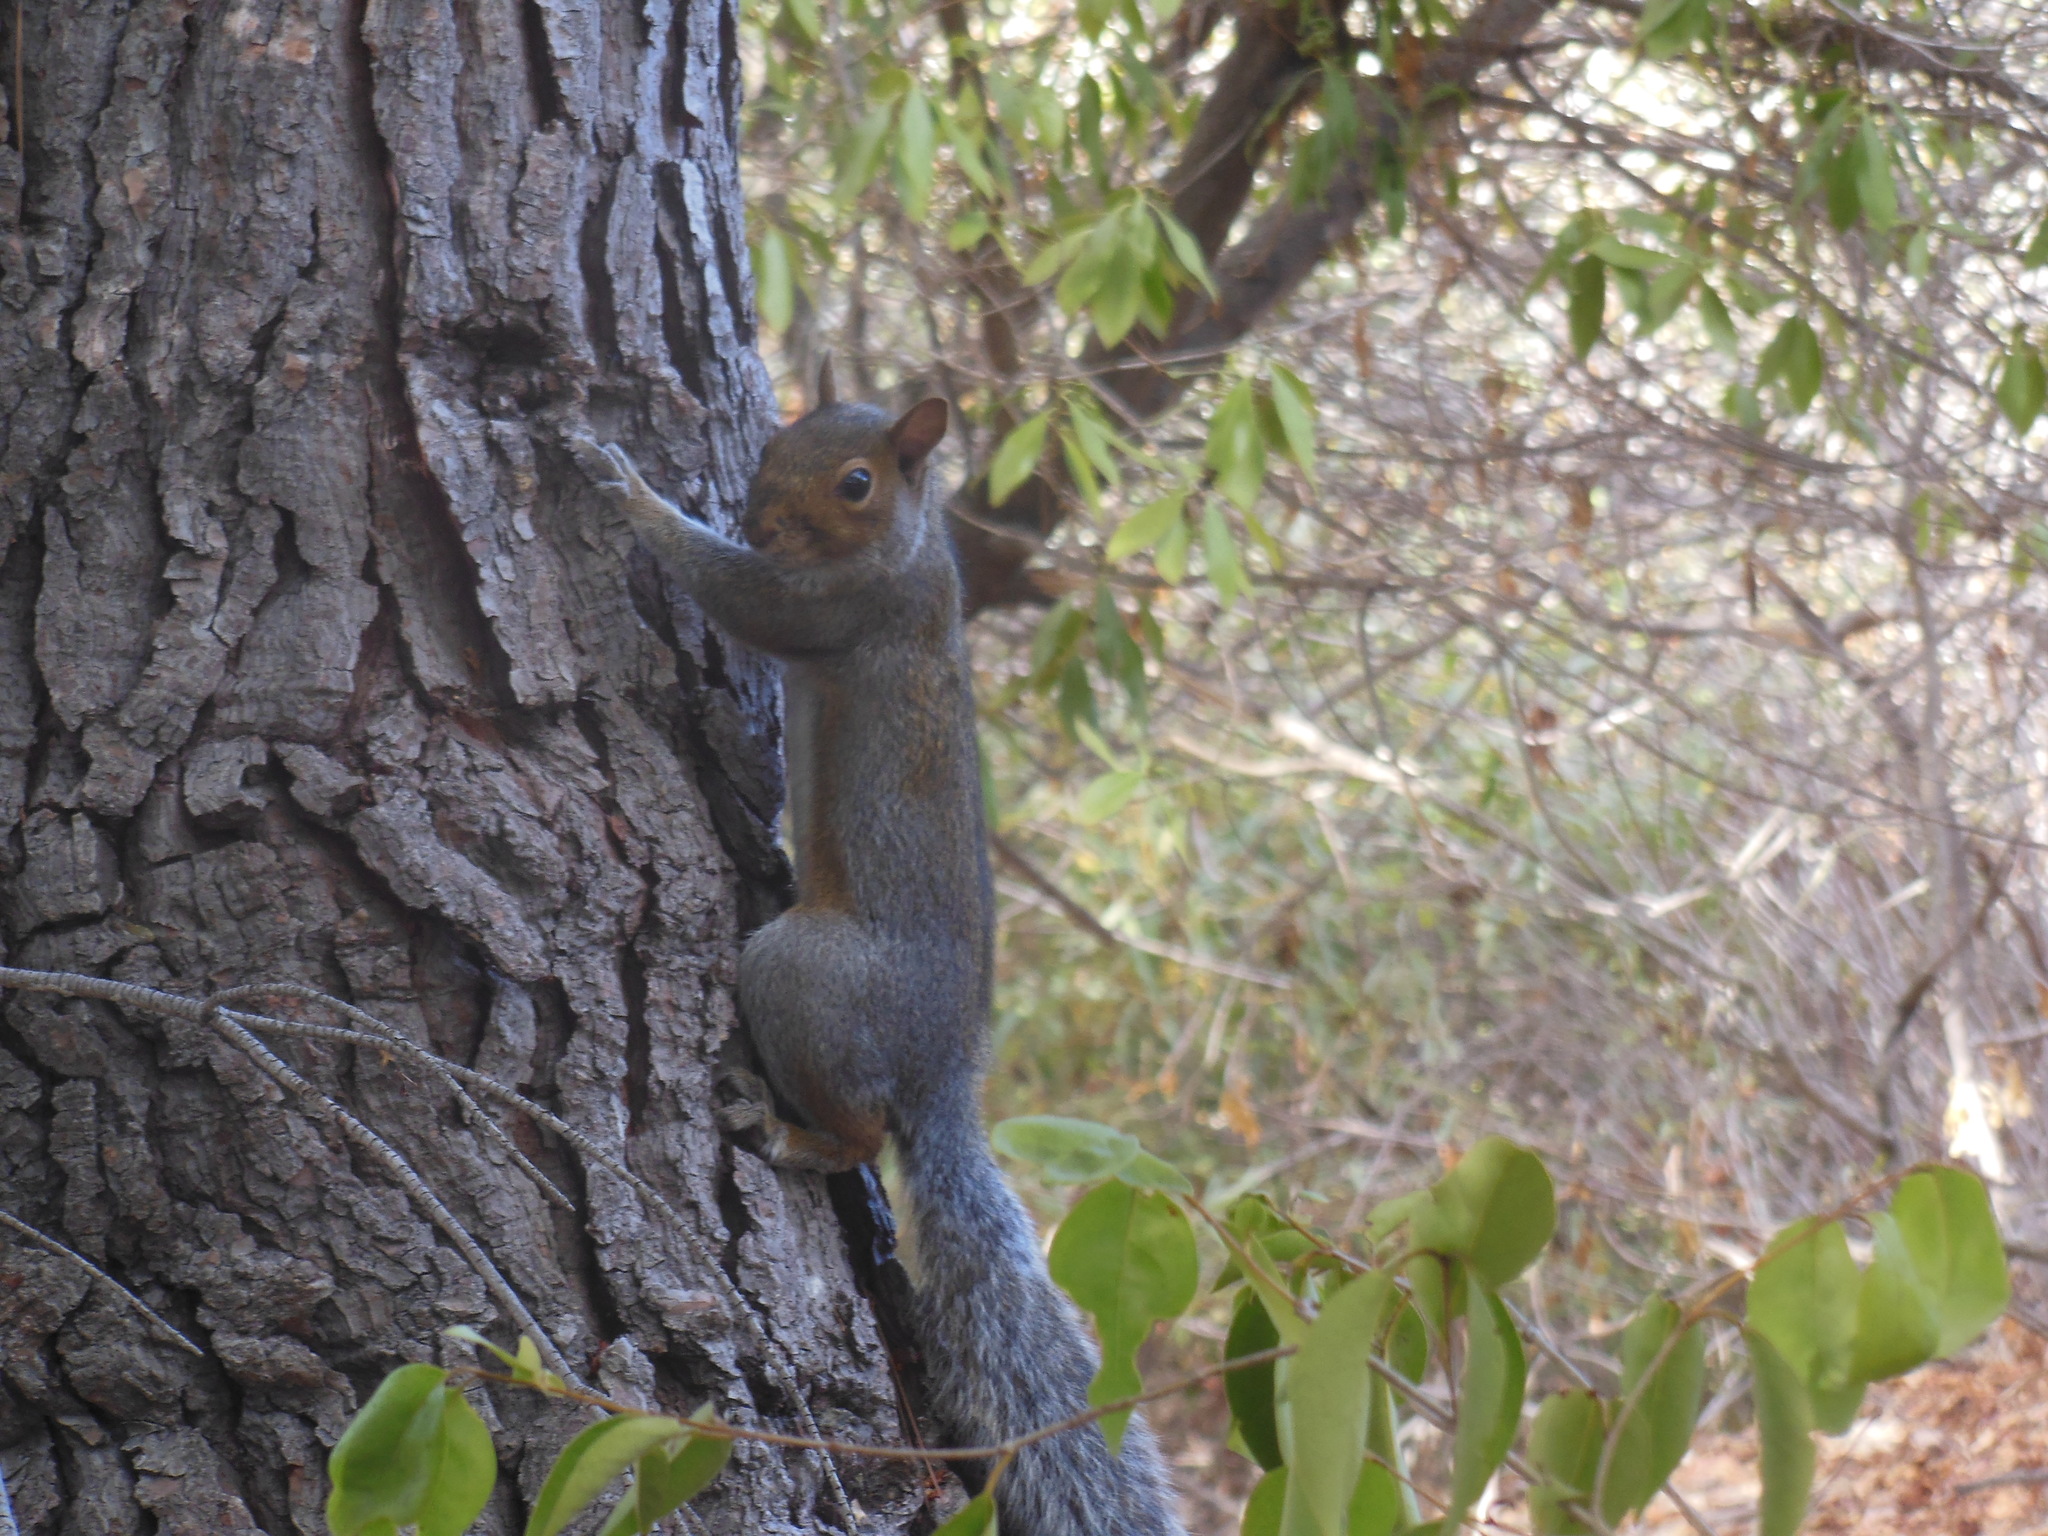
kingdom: Animalia
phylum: Chordata
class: Mammalia
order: Rodentia
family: Sciuridae
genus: Sciurus
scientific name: Sciurus carolinensis
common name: Eastern gray squirrel
